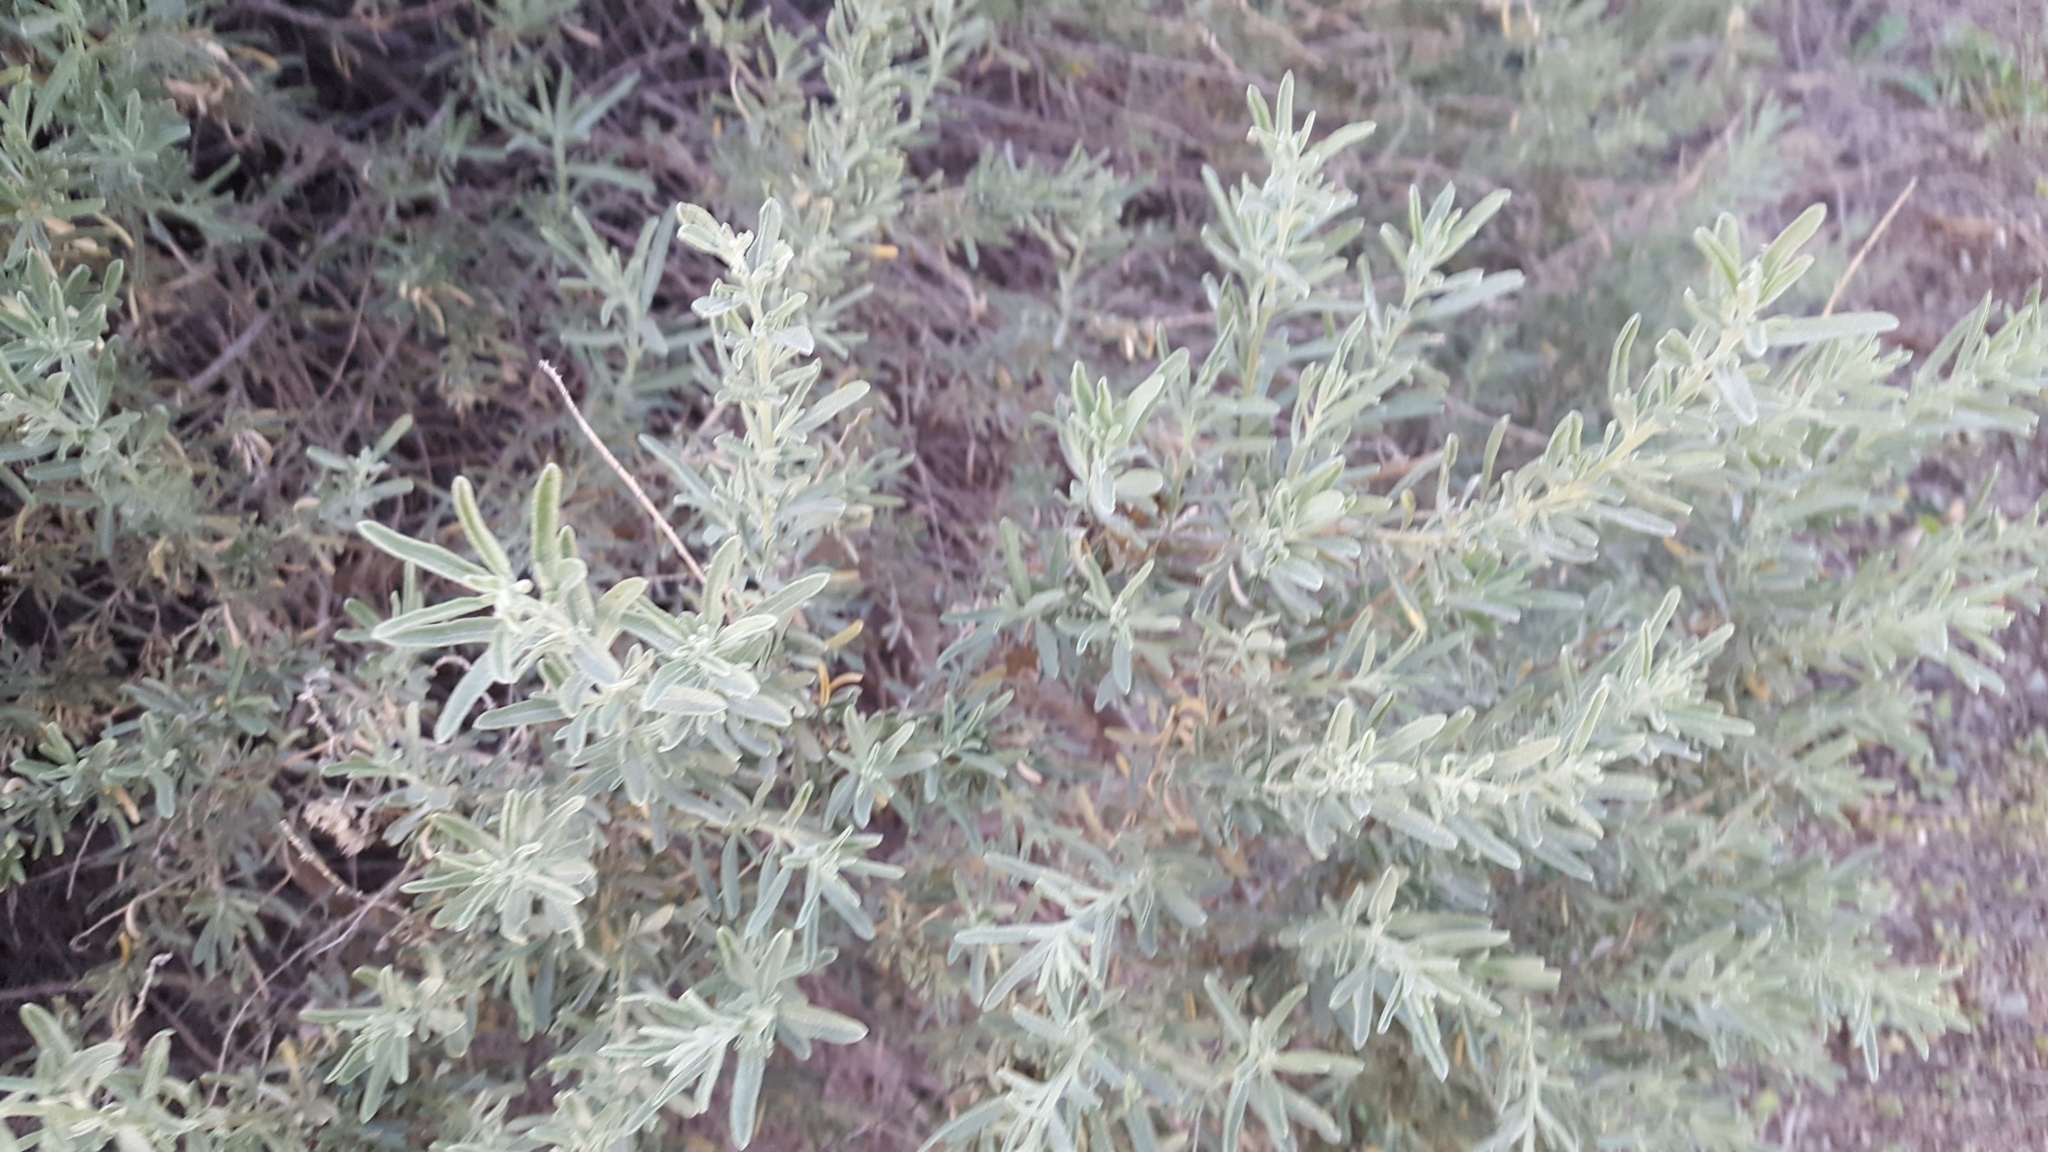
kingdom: Plantae
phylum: Tracheophyta
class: Magnoliopsida
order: Caryophyllales
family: Amaranthaceae
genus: Atriplex
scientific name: Atriplex canescens
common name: Four-wing saltbush
